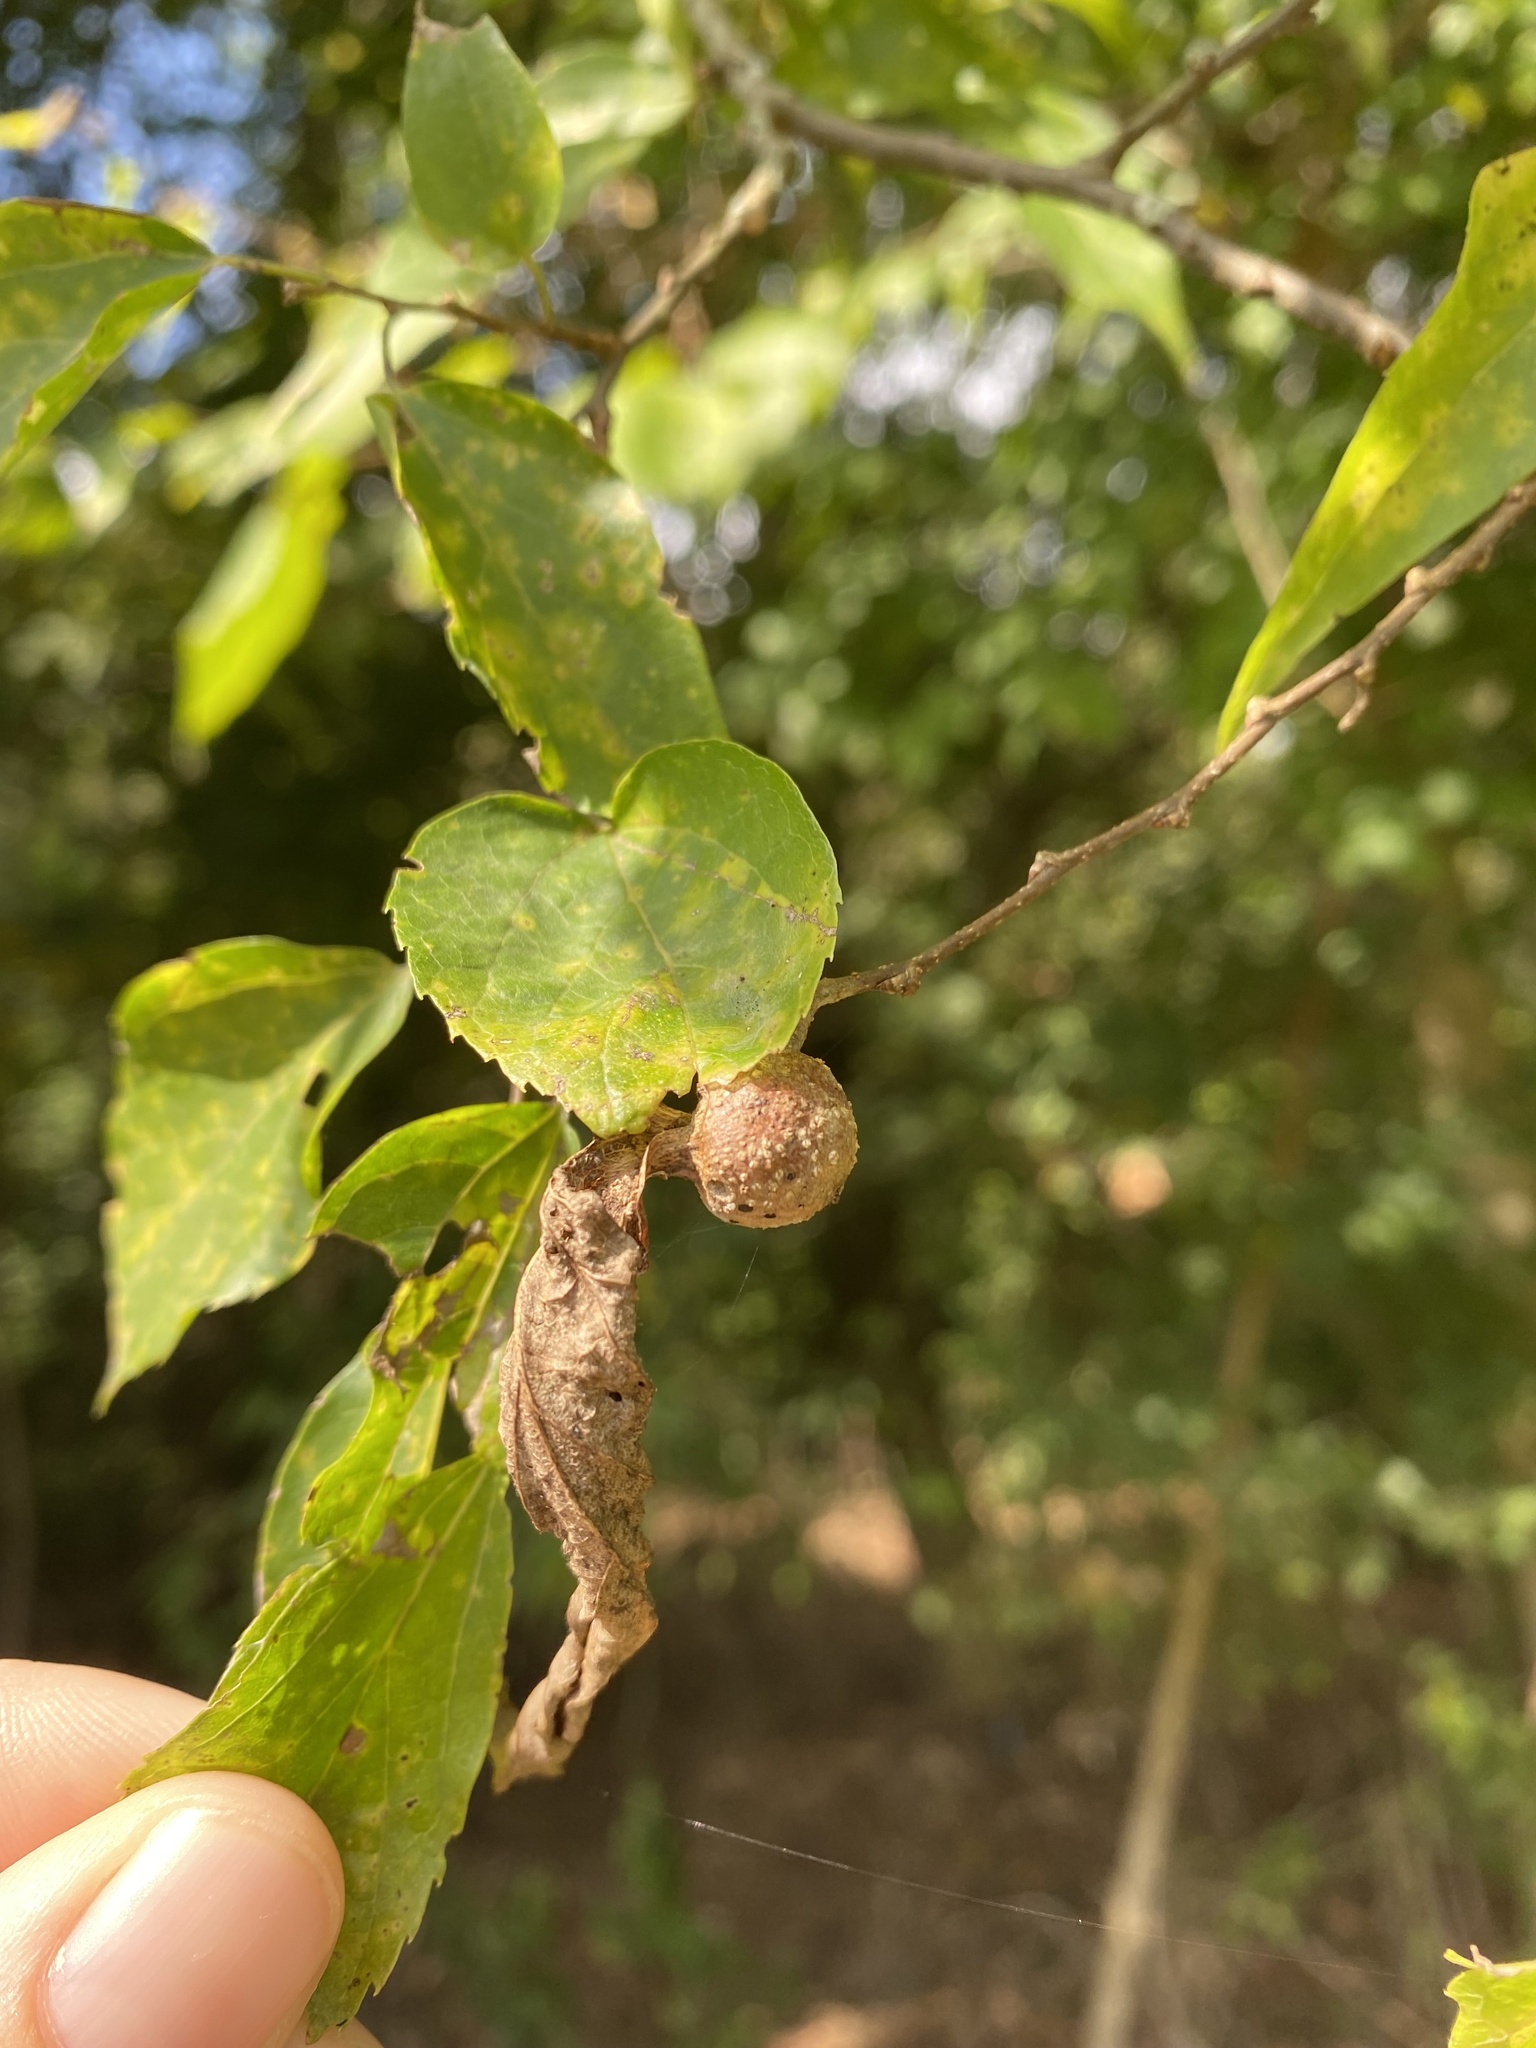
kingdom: Animalia
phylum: Arthropoda
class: Insecta
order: Hemiptera
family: Aphalaridae
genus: Pachypsylla
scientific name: Pachypsylla venusta
